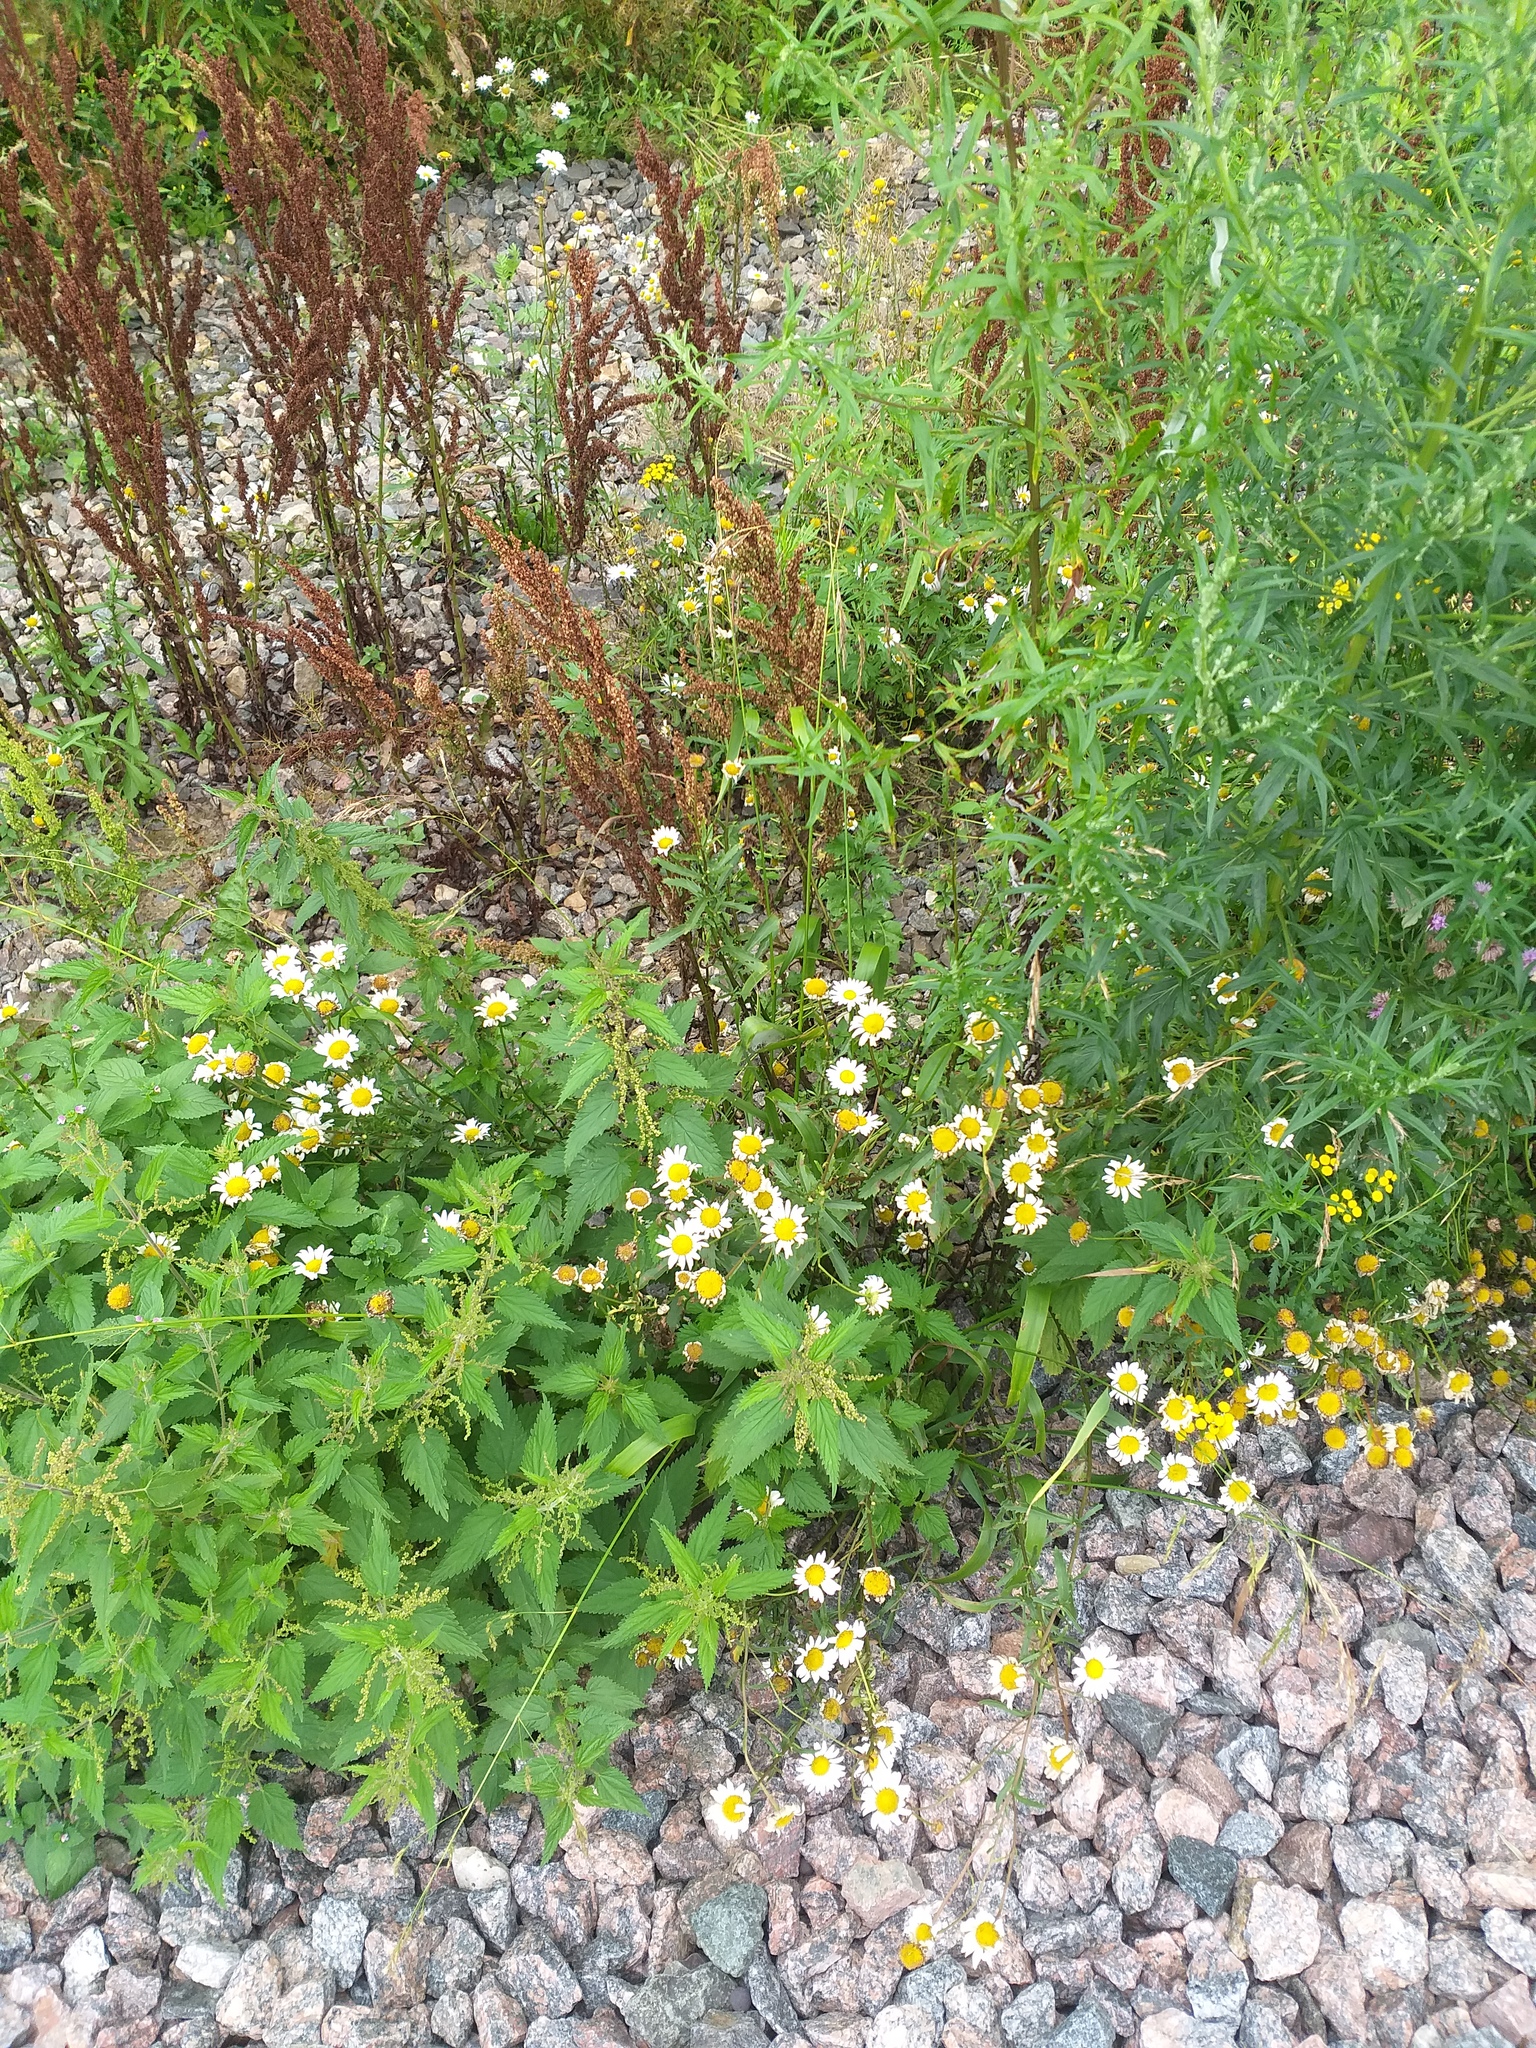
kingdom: Plantae
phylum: Tracheophyta
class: Magnoliopsida
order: Asterales
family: Asteraceae
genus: Tripleurospermum
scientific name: Tripleurospermum inodorum
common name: Scentless mayweed
